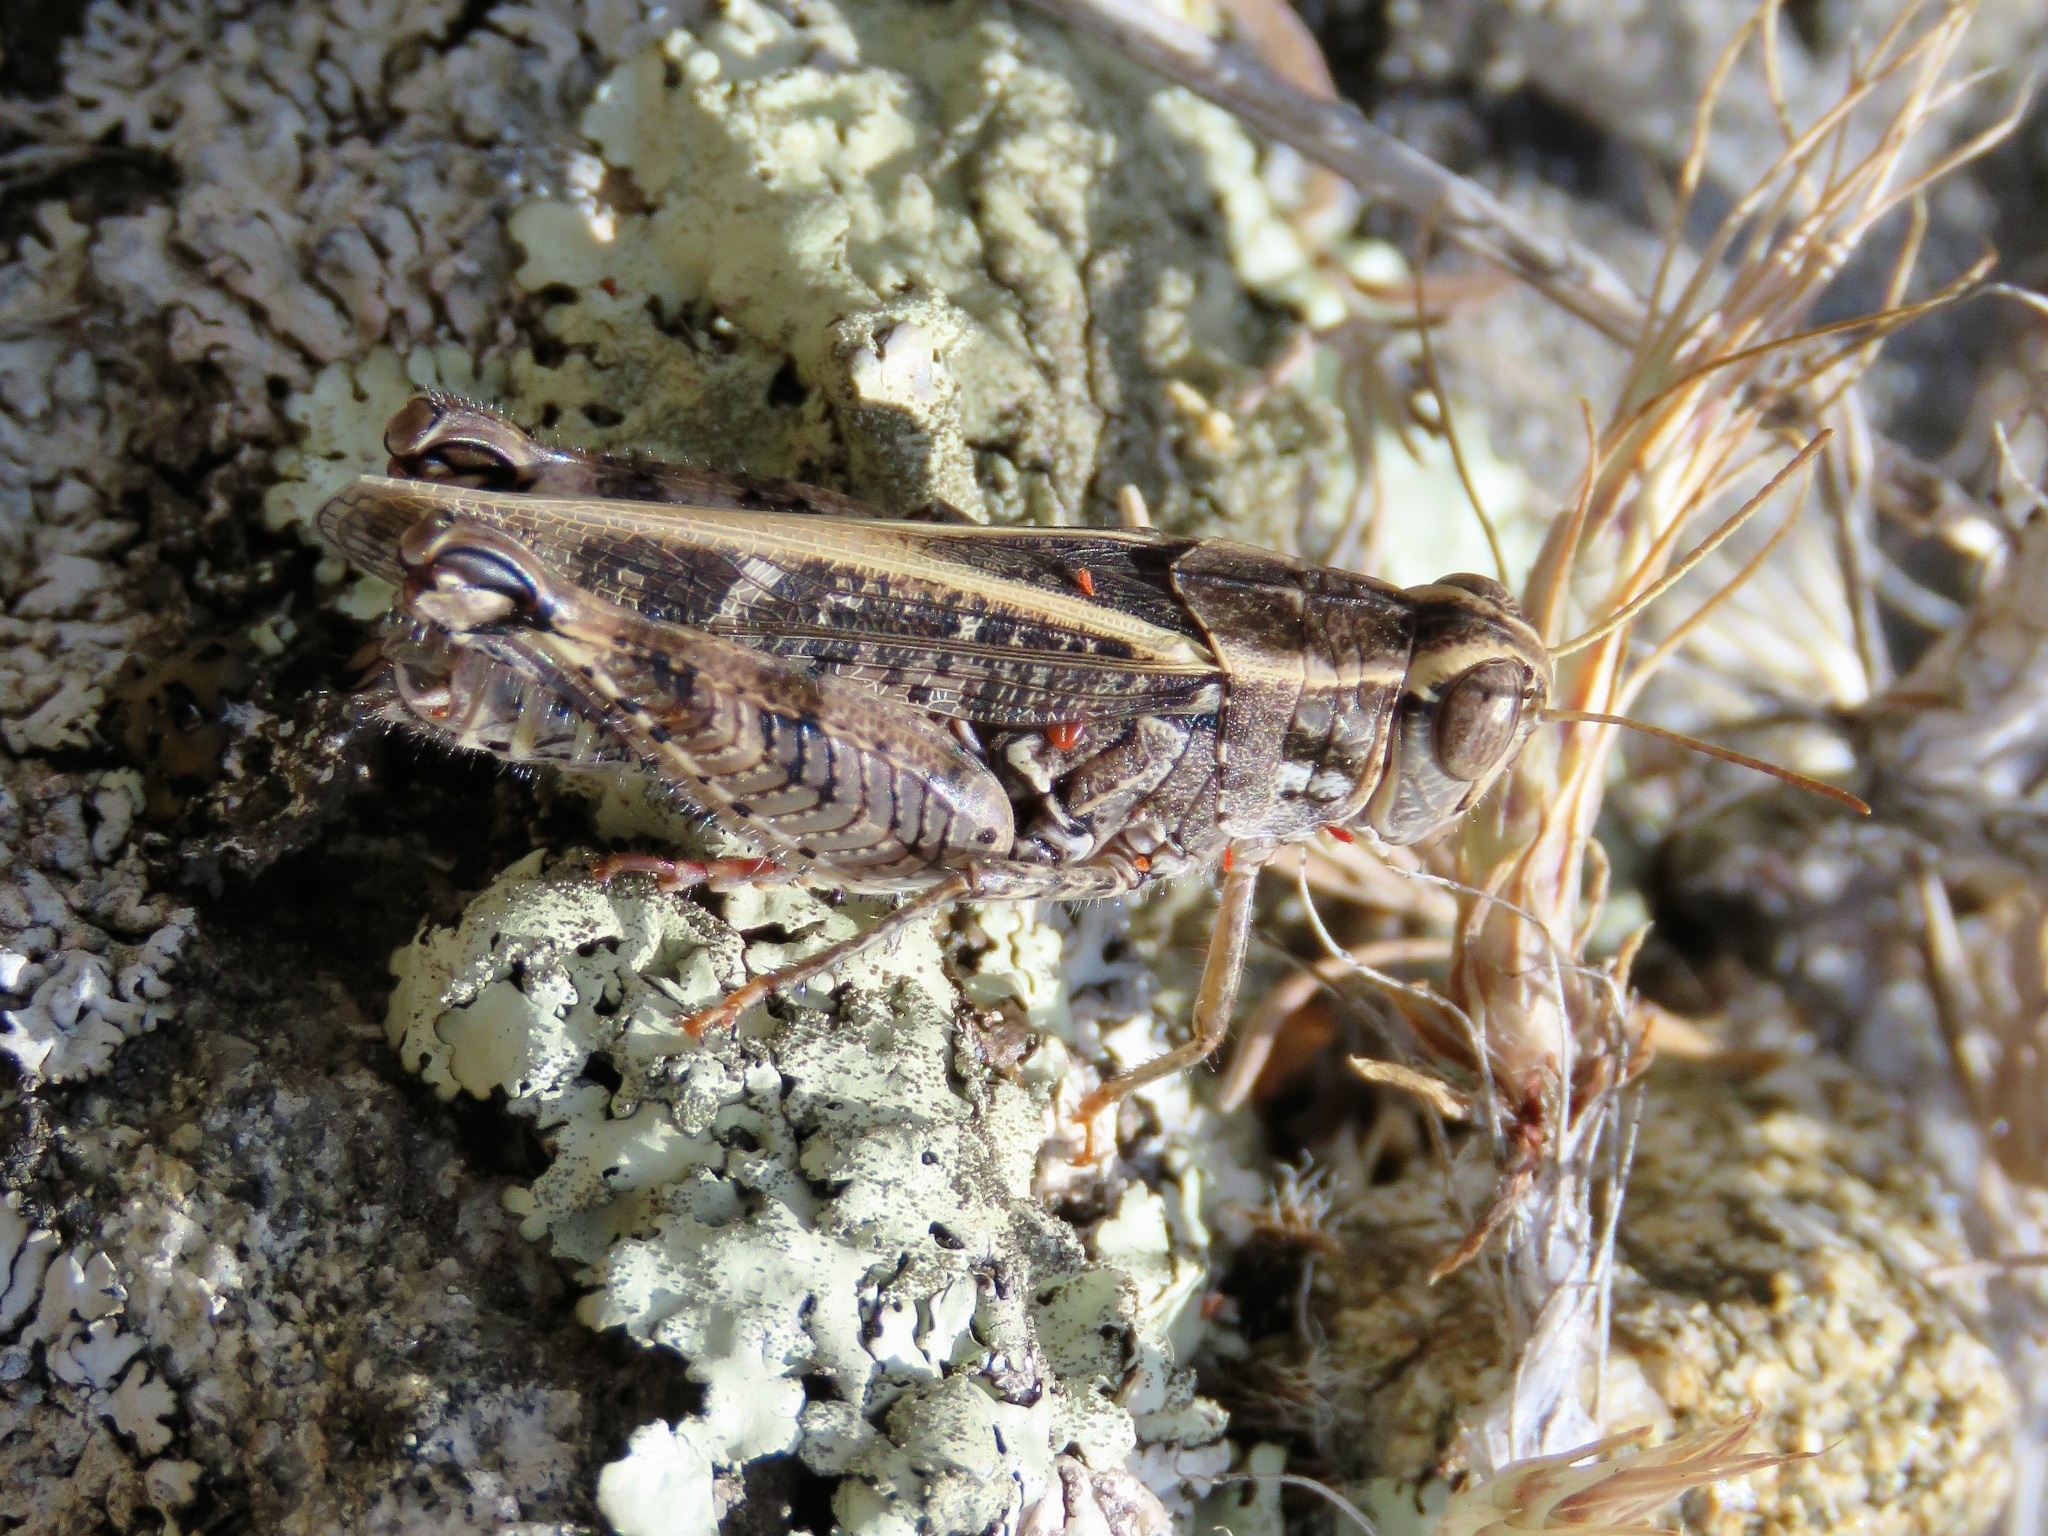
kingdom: Animalia
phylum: Arthropoda
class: Insecta
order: Orthoptera
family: Acrididae
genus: Calliptamus
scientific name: Calliptamus barbarus
